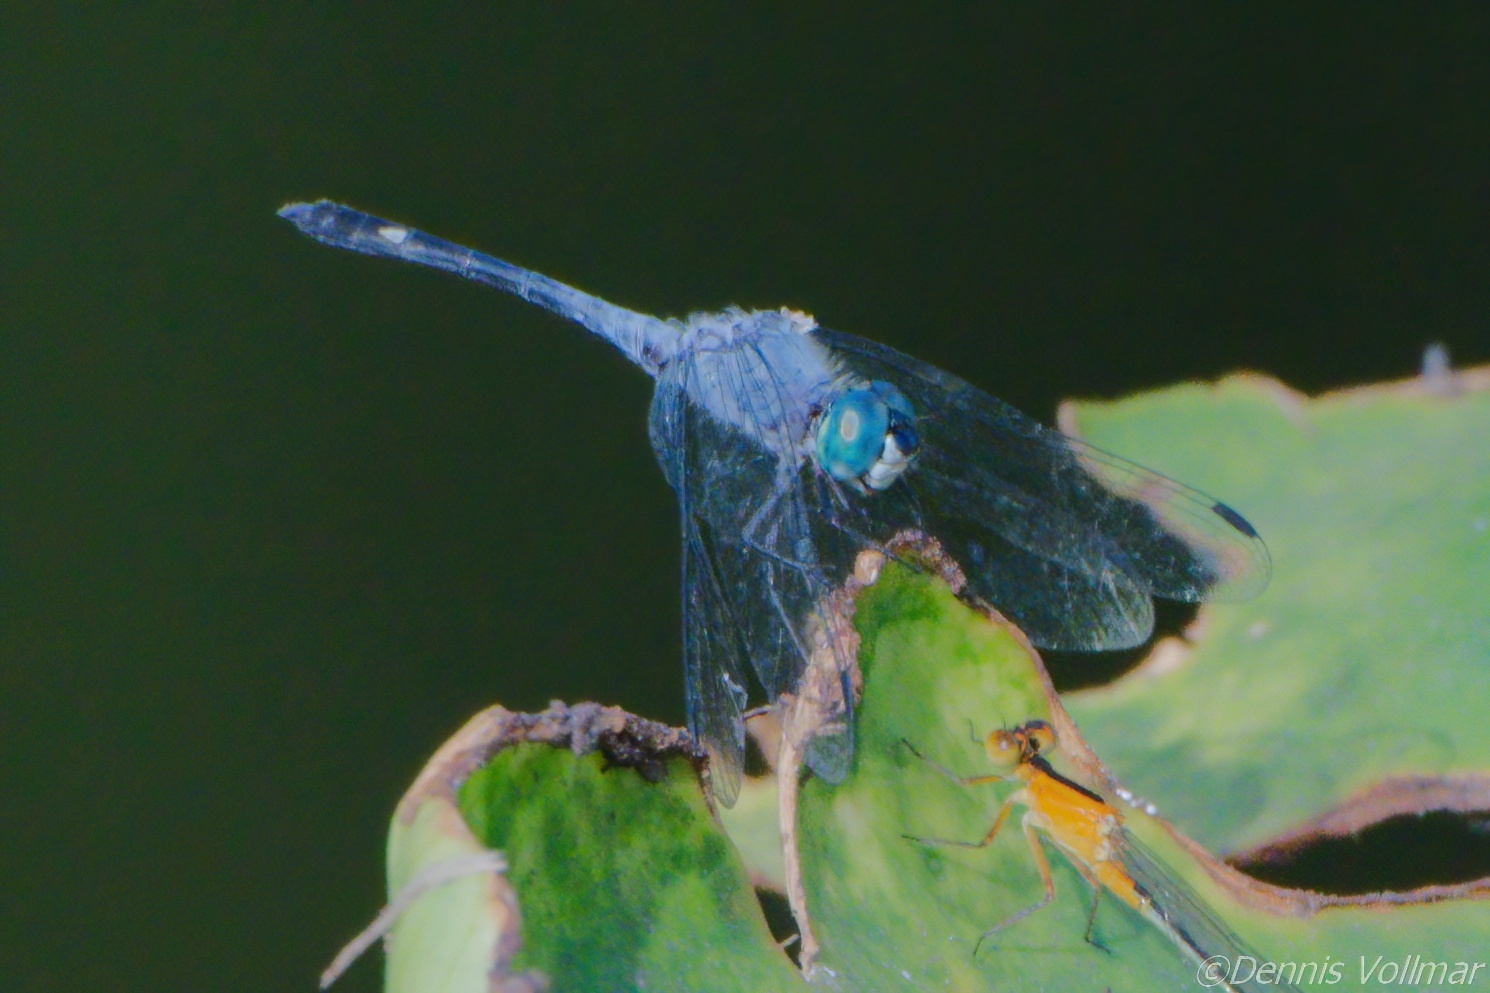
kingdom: Animalia
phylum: Arthropoda
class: Insecta
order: Odonata
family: Libellulidae
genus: Micrathyria
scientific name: Micrathyria aequalis
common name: Spot-tailed dasher
